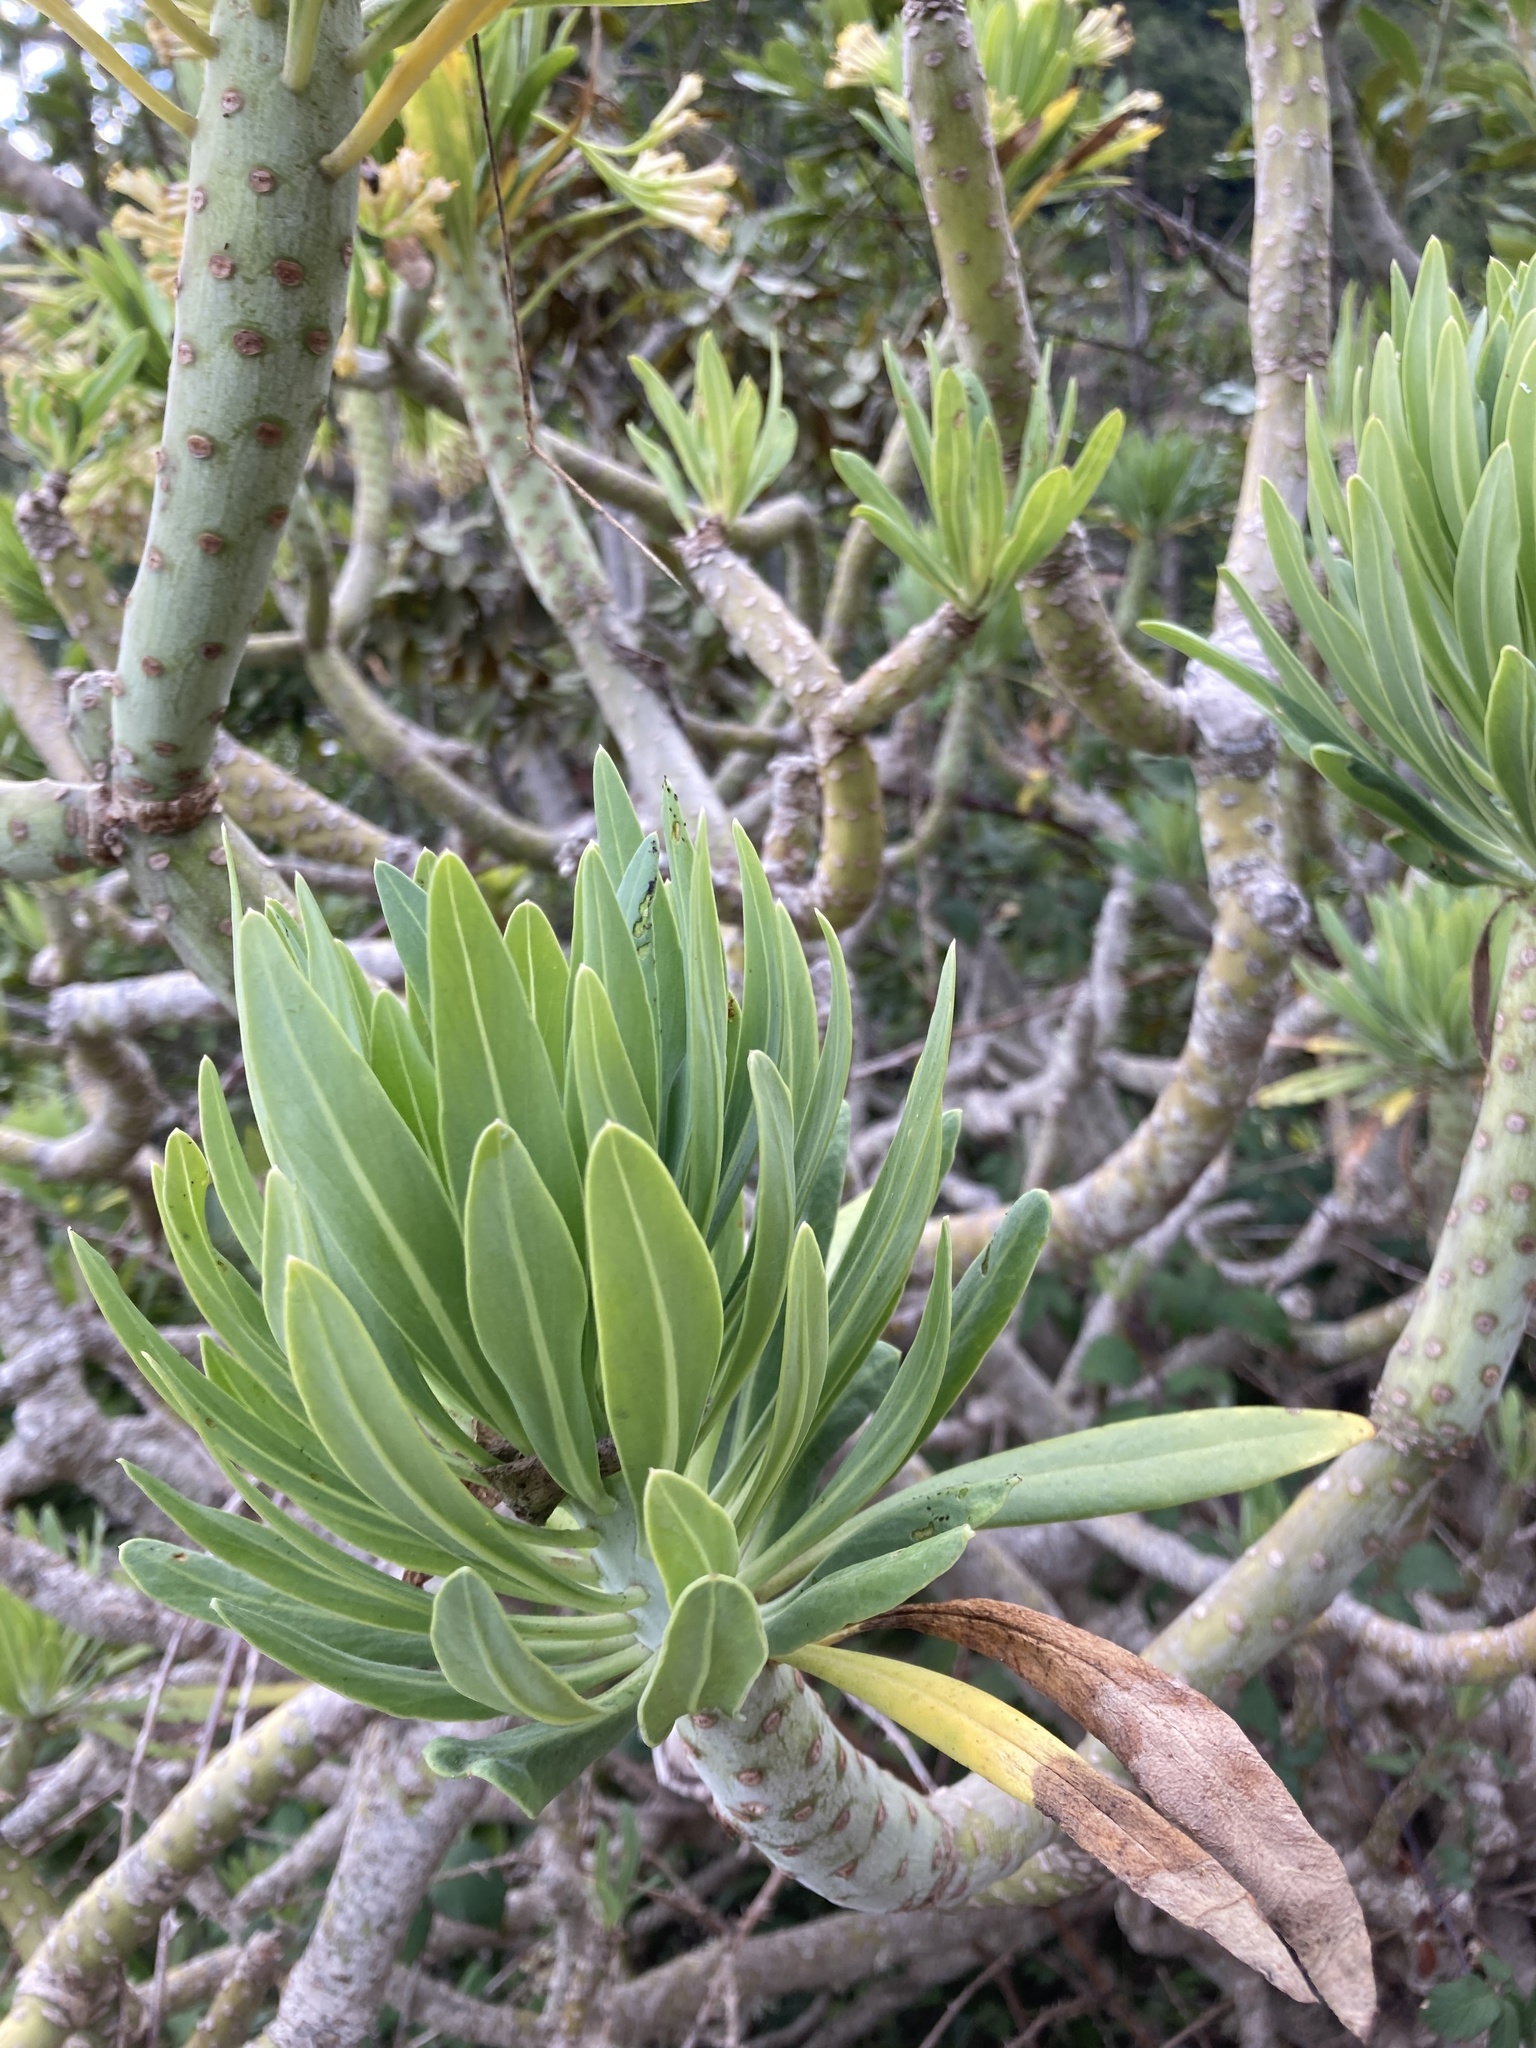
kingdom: Plantae
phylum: Tracheophyta
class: Magnoliopsida
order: Asterales
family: Asteraceae
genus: Kleinia
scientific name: Kleinia neriifolia
